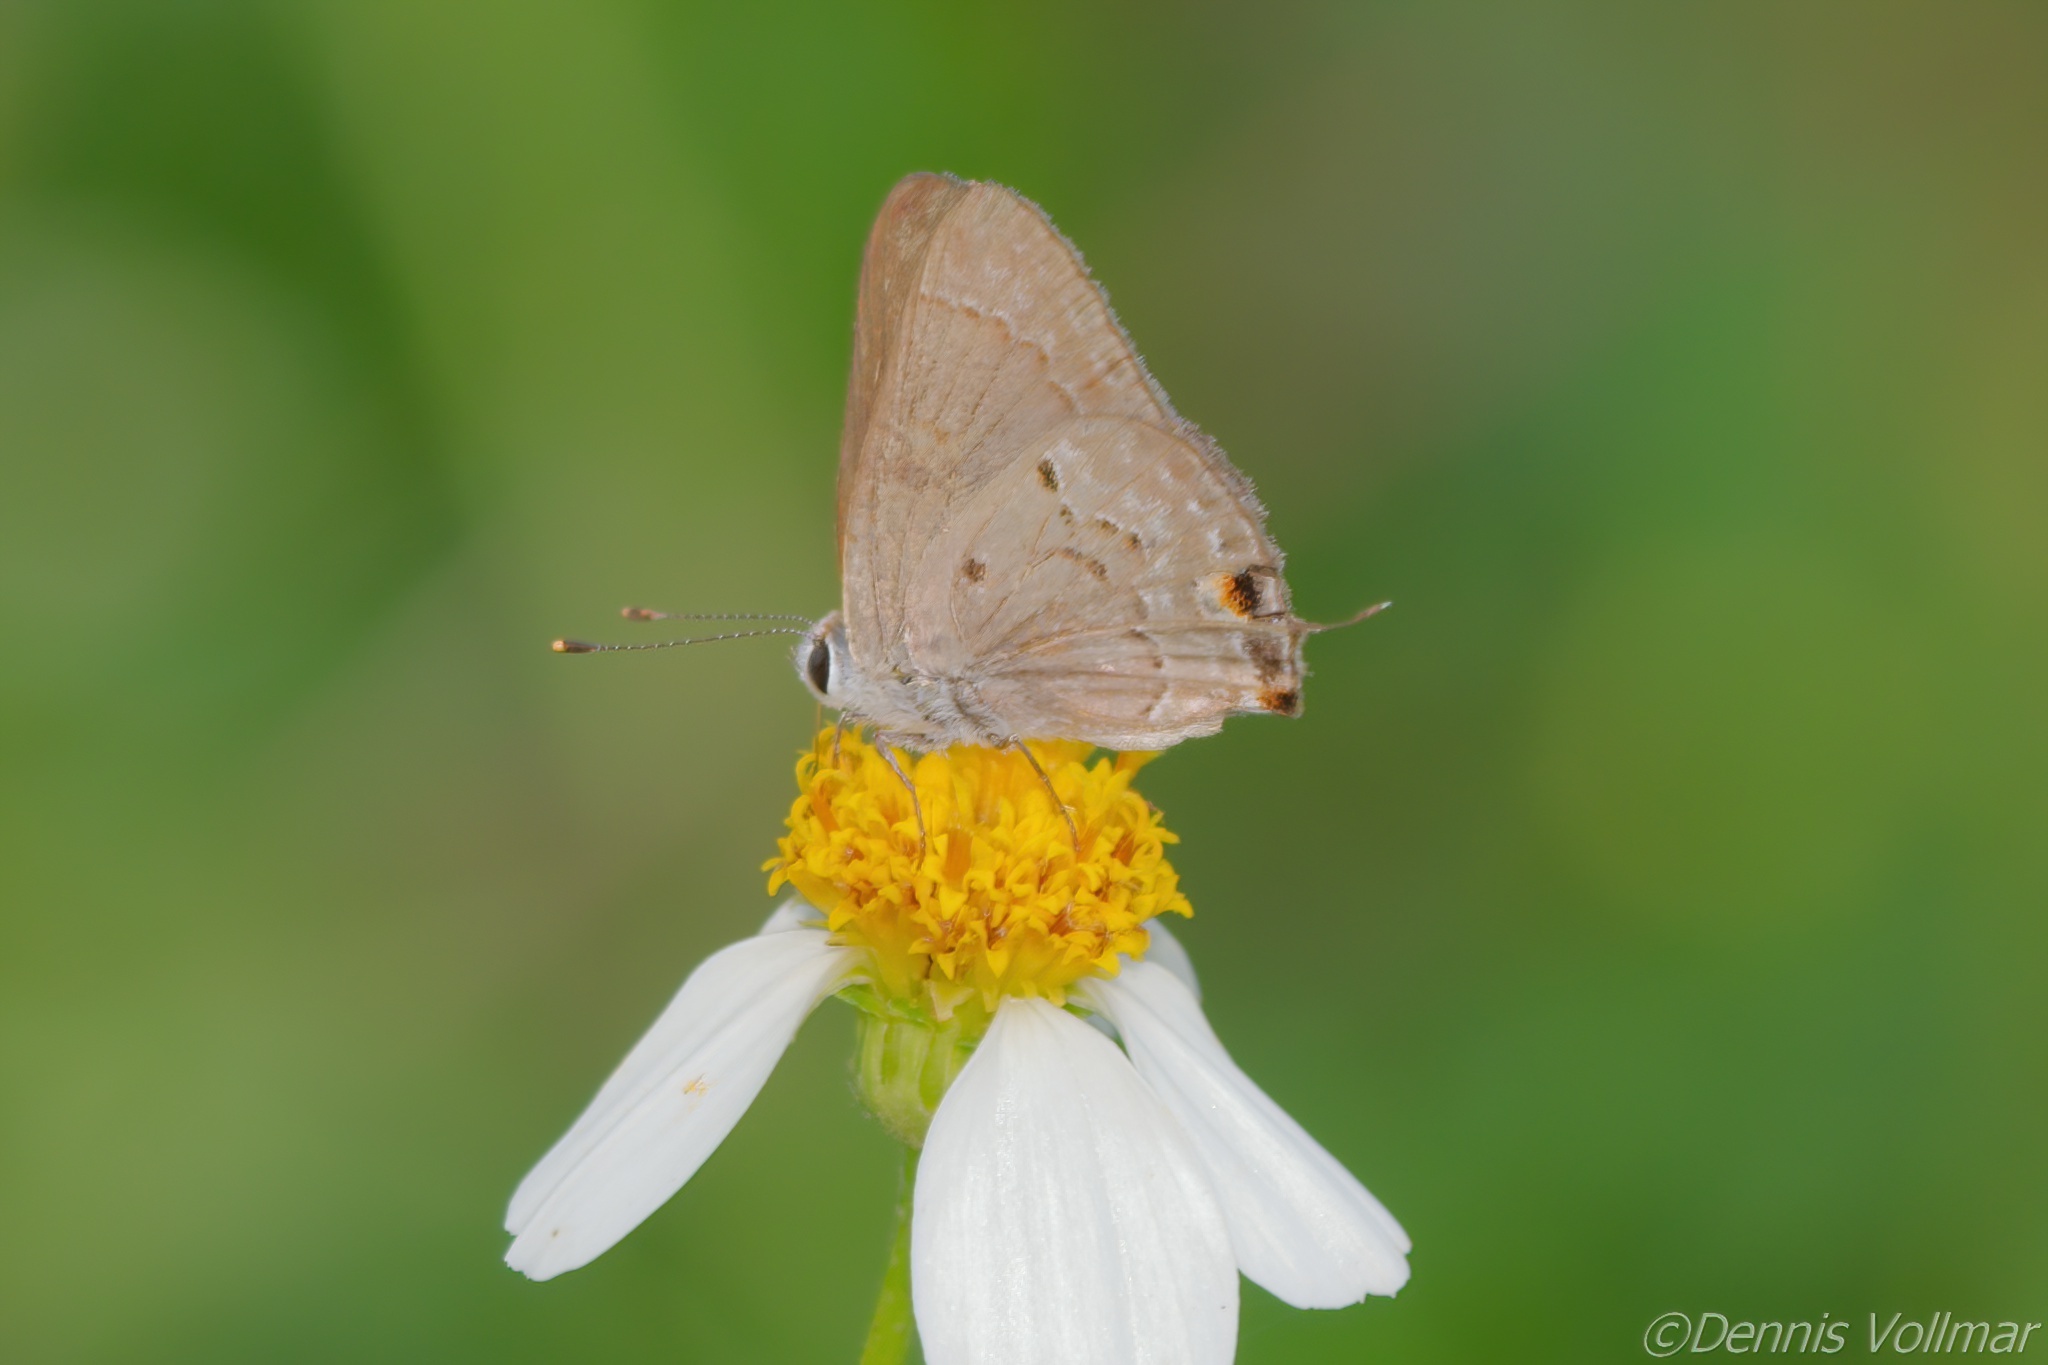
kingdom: Animalia
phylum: Arthropoda
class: Insecta
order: Lepidoptera
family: Lycaenidae
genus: Callicista
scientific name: Callicista columella
